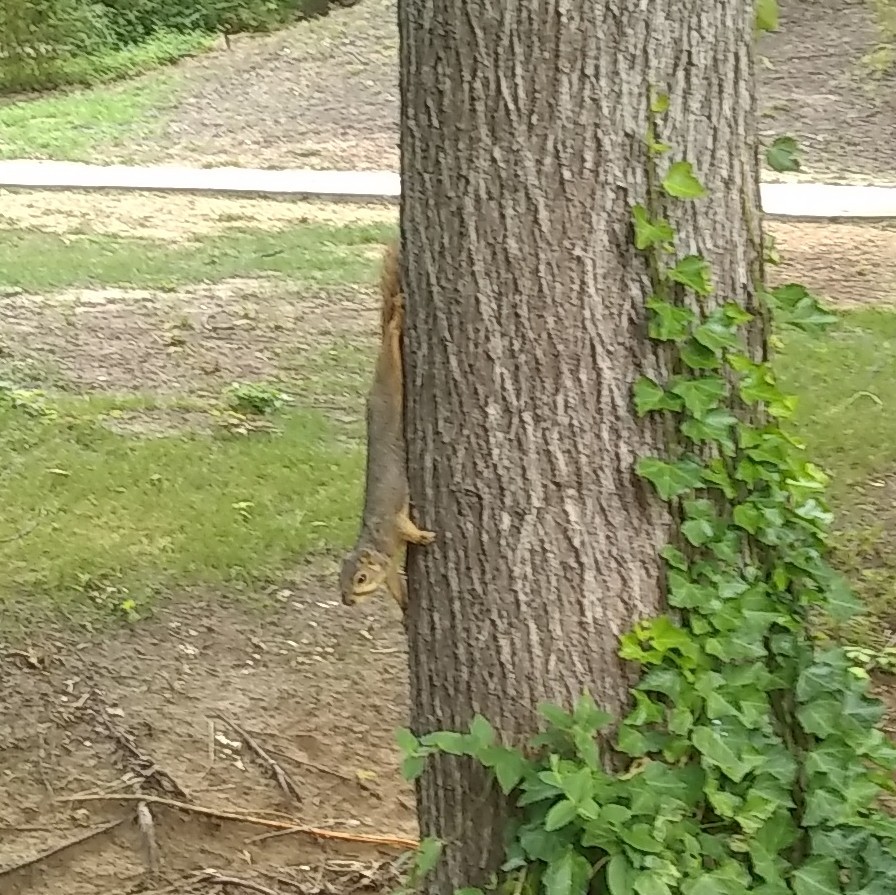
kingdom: Animalia
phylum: Chordata
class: Mammalia
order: Rodentia
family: Sciuridae
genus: Sciurus
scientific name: Sciurus niger
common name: Fox squirrel
